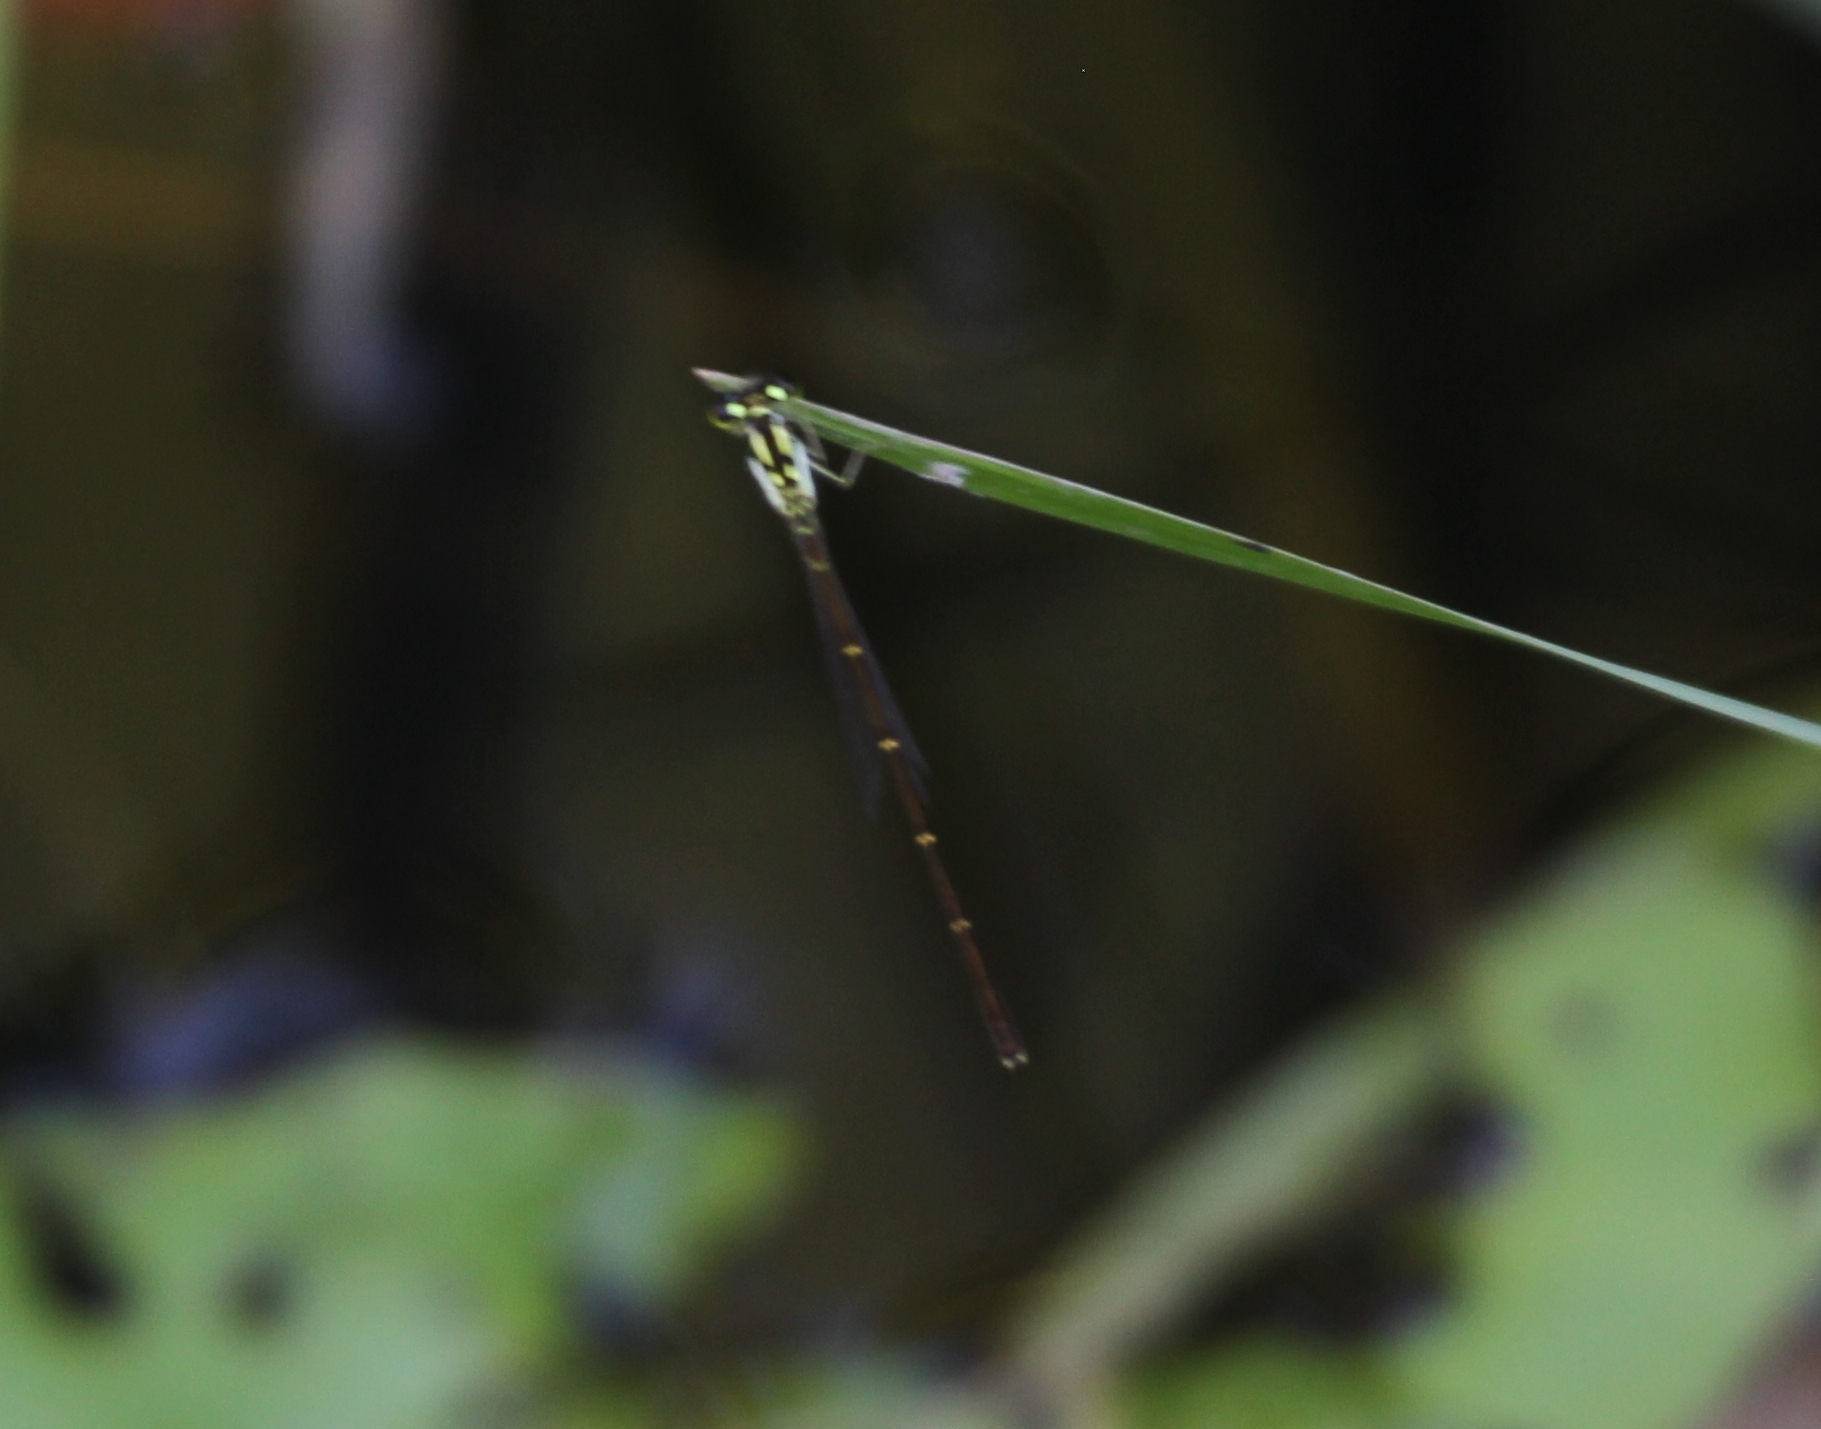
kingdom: Animalia
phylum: Arthropoda
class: Insecta
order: Odonata
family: Coenagrionidae
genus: Ischnura
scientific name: Ischnura posita
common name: Fragile forktail
